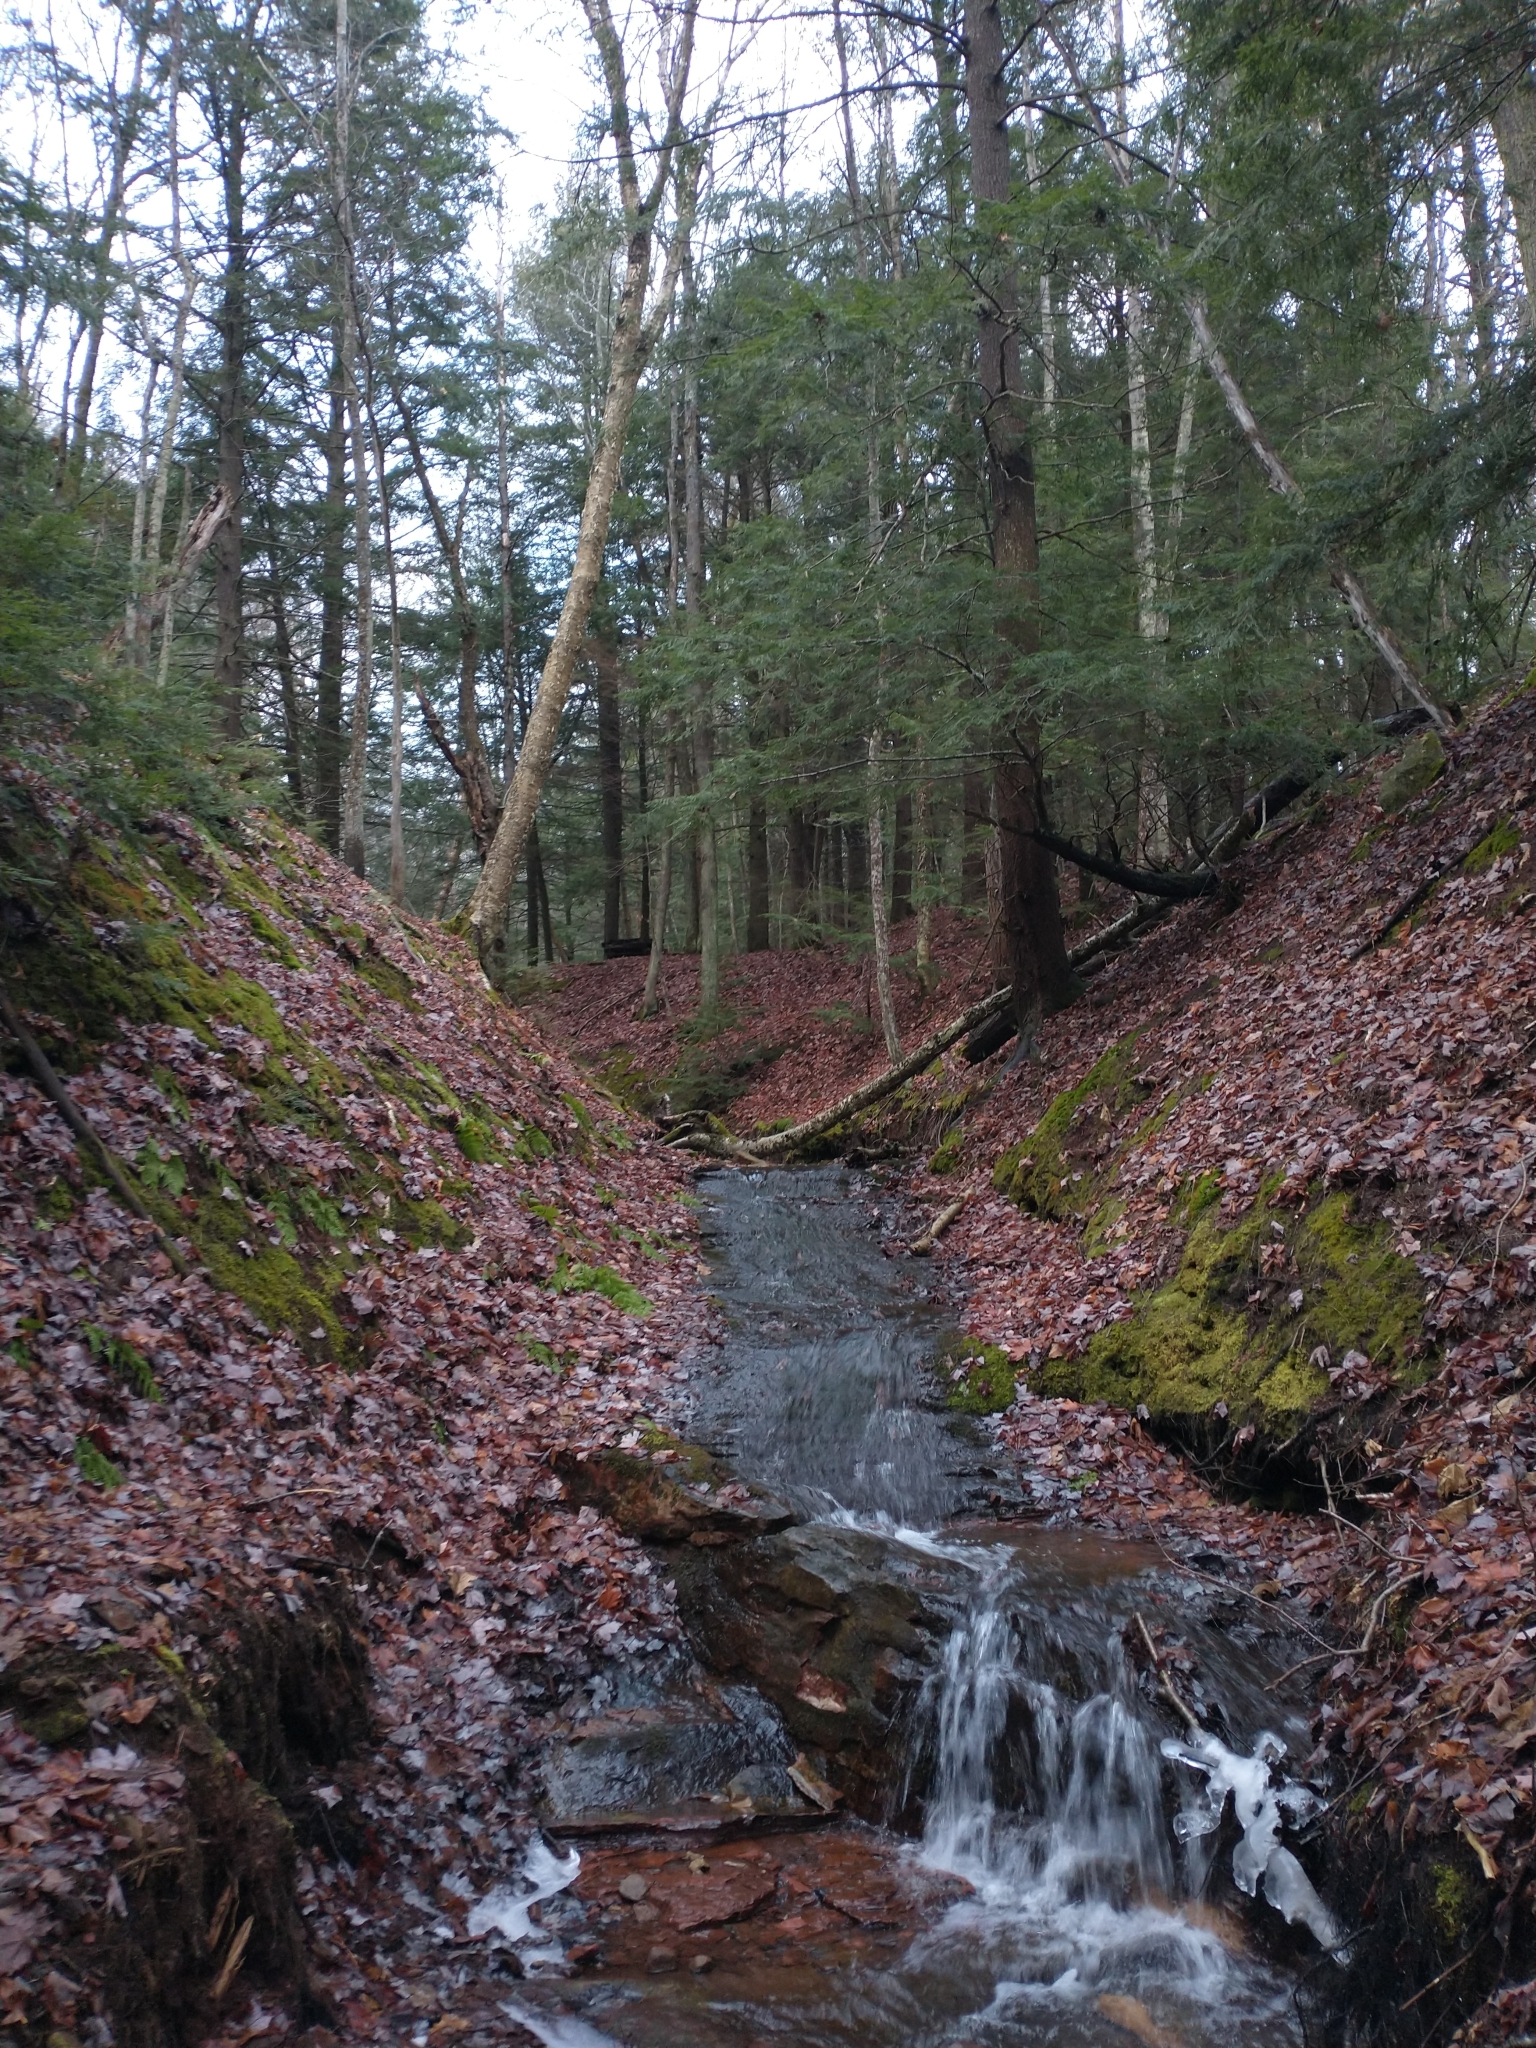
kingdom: Plantae
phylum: Tracheophyta
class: Magnoliopsida
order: Fagales
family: Betulaceae
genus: Betula
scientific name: Betula alleghaniensis
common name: Yellow birch
